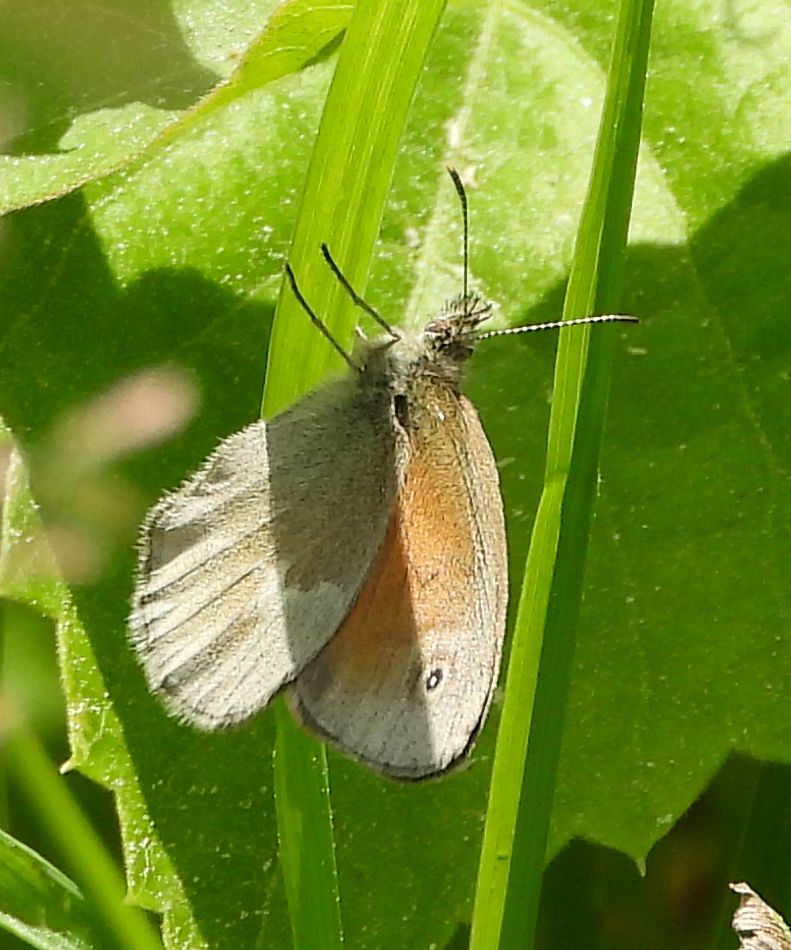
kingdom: Animalia
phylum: Arthropoda
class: Insecta
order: Lepidoptera
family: Nymphalidae
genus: Coenonympha
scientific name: Coenonympha california
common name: Common ringlet
